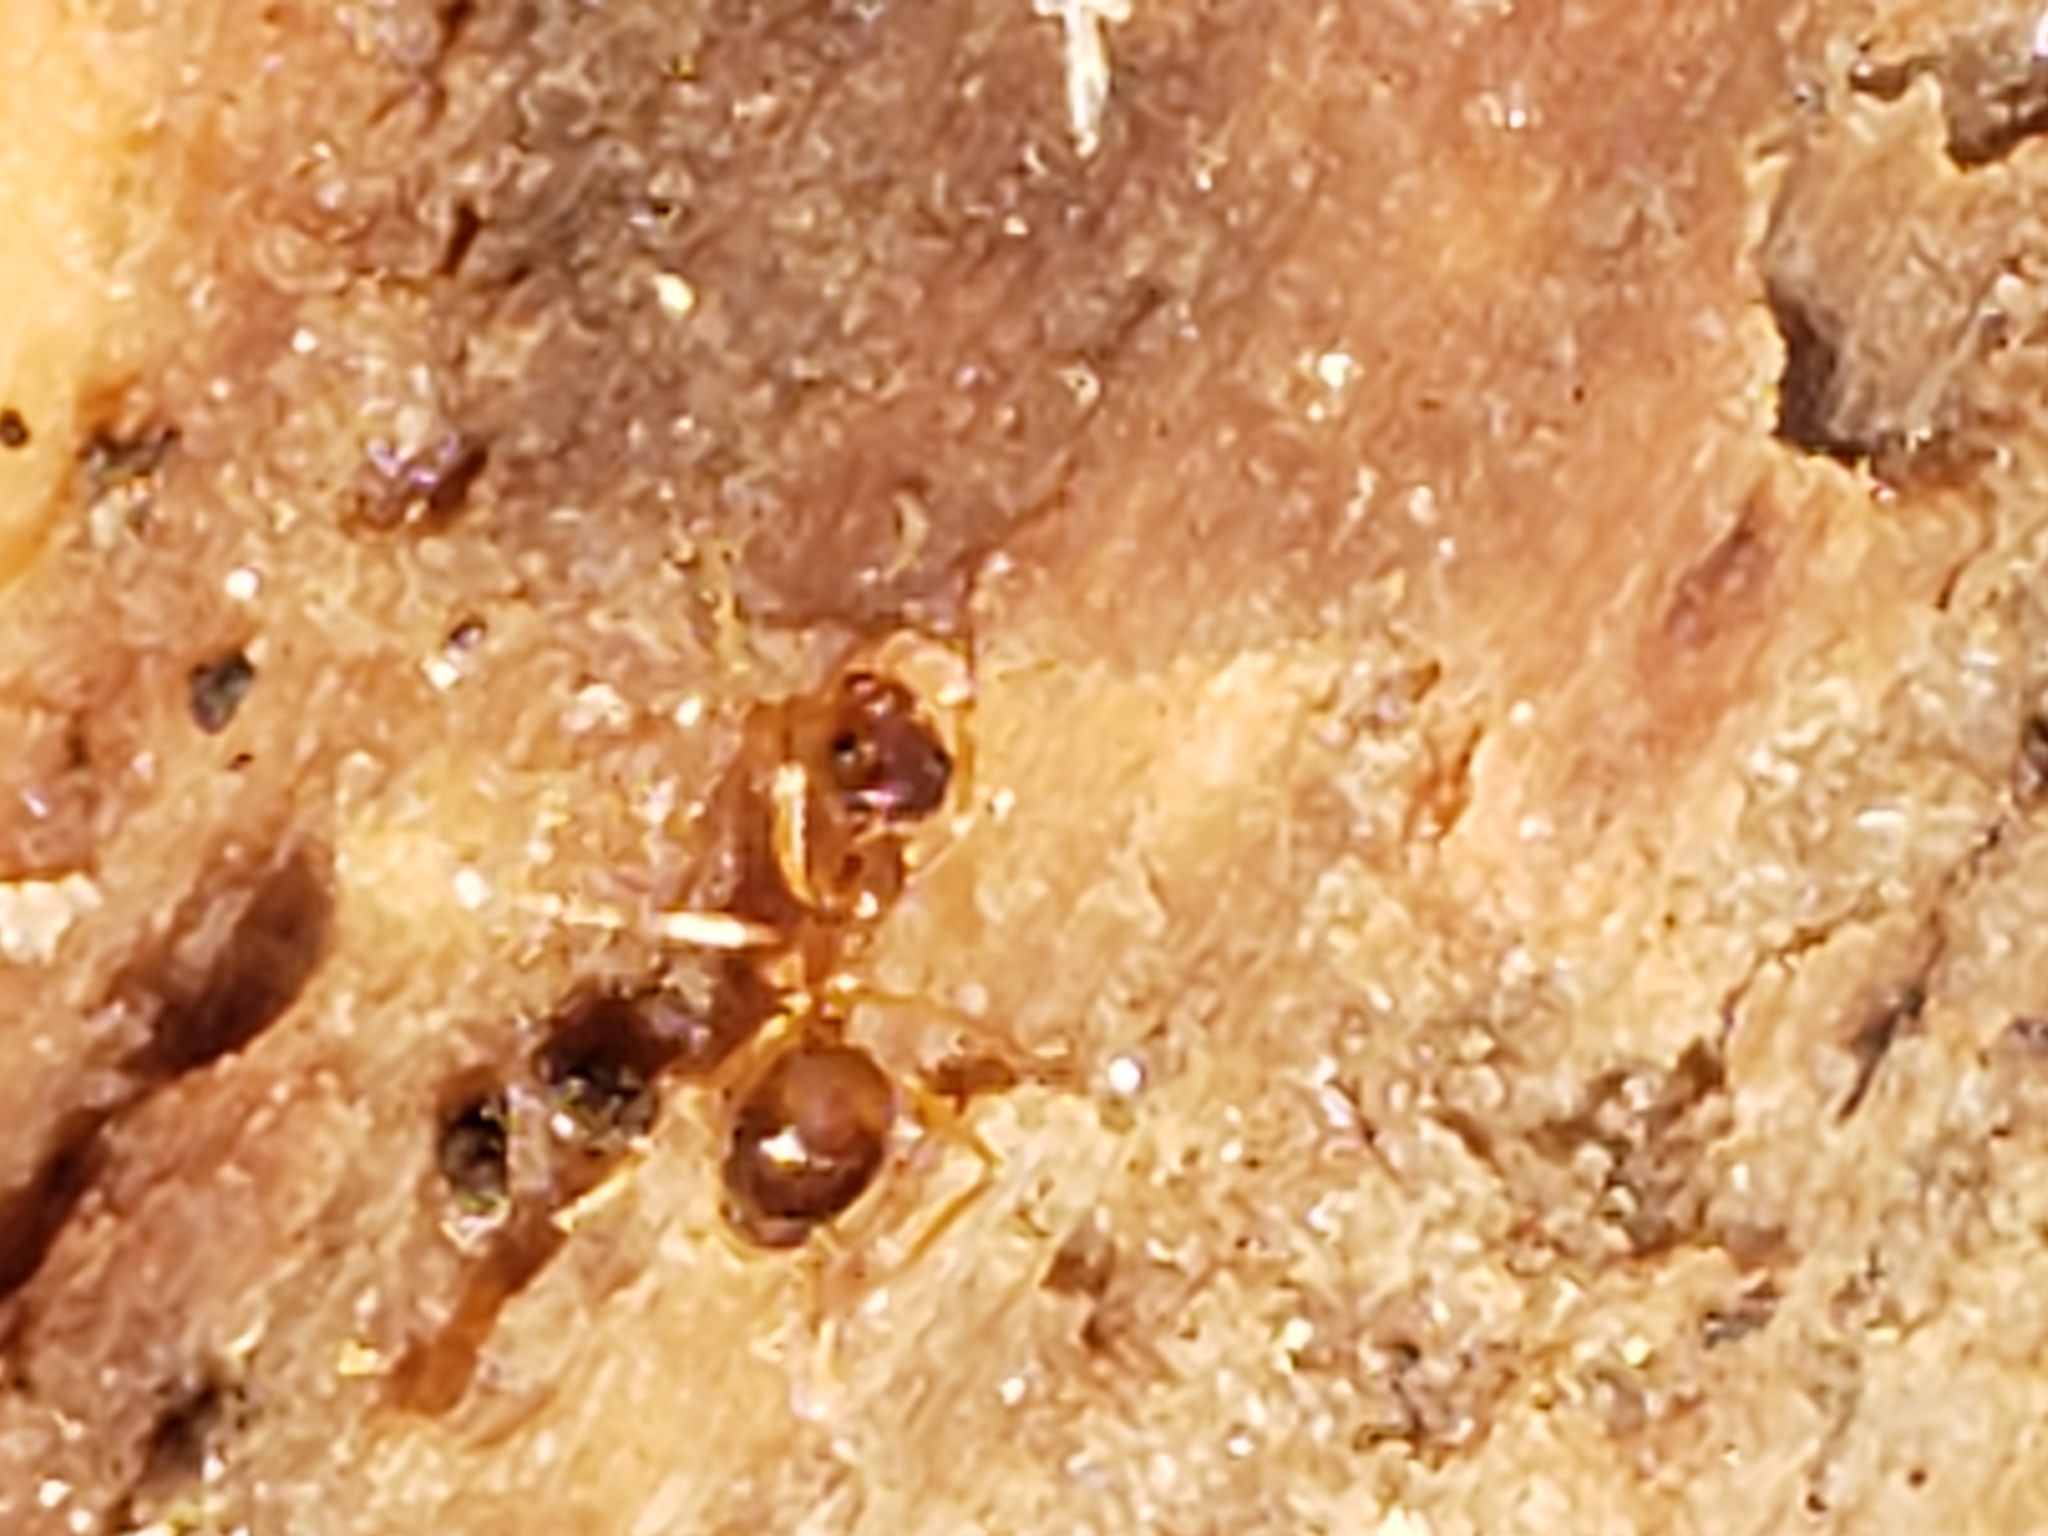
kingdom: Animalia
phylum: Arthropoda
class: Insecta
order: Hymenoptera
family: Formicidae
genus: Prenolepis
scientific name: Prenolepis imparis
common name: Small honey ant
